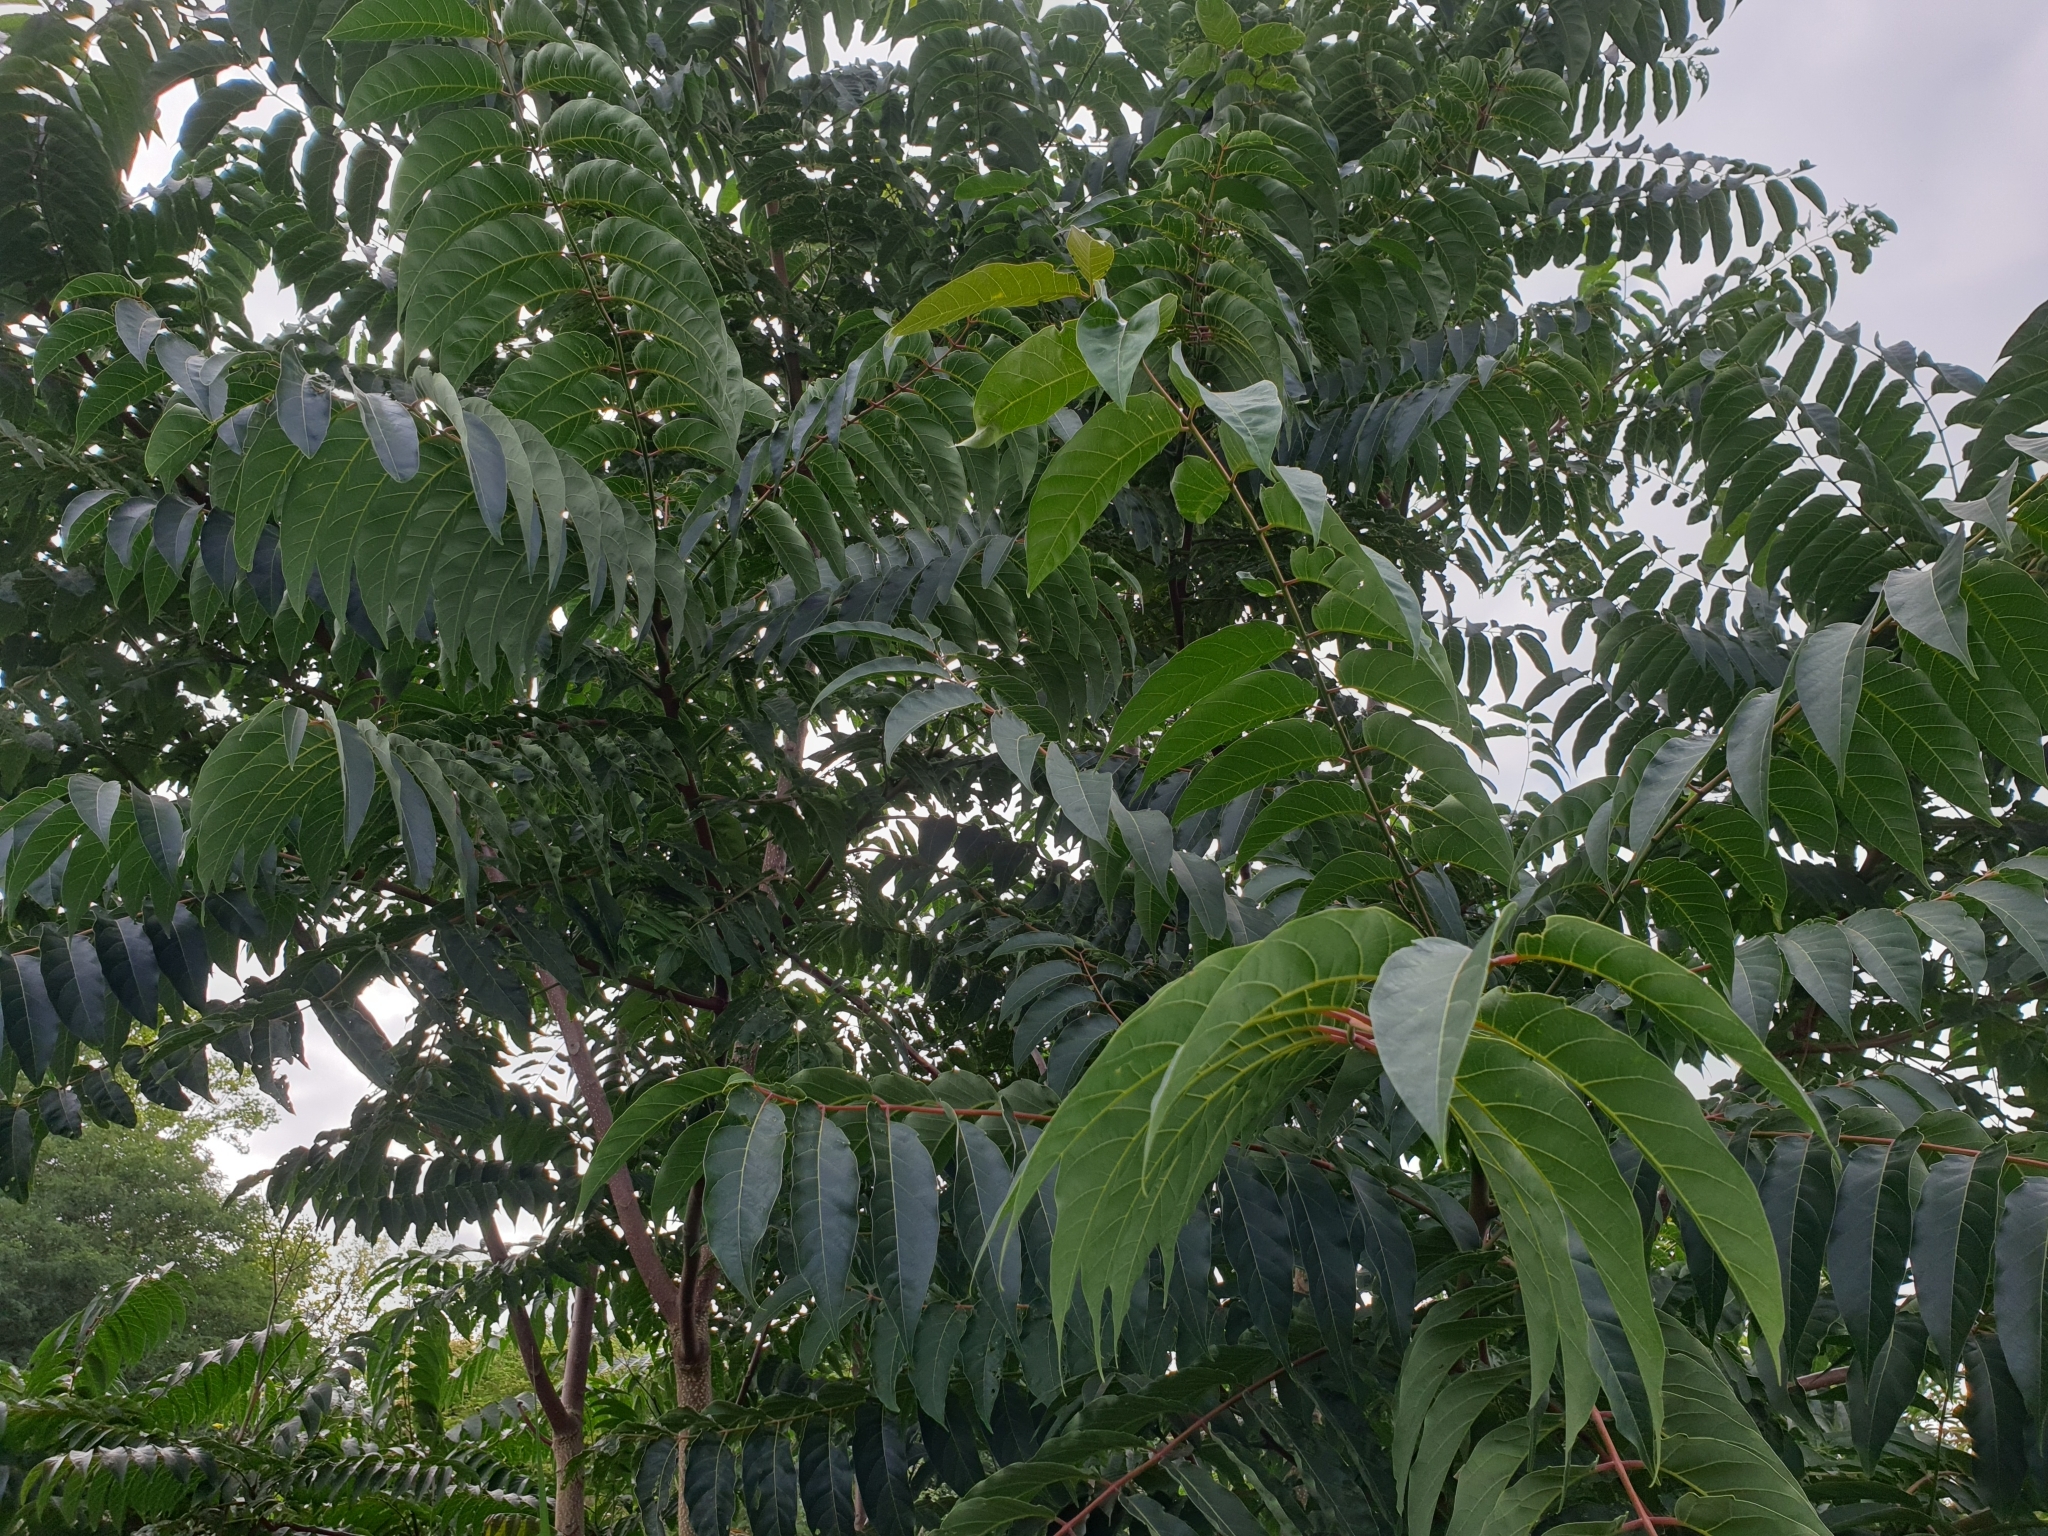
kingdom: Plantae
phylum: Tracheophyta
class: Magnoliopsida
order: Sapindales
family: Simaroubaceae
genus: Ailanthus
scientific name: Ailanthus altissima
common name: Tree-of-heaven
